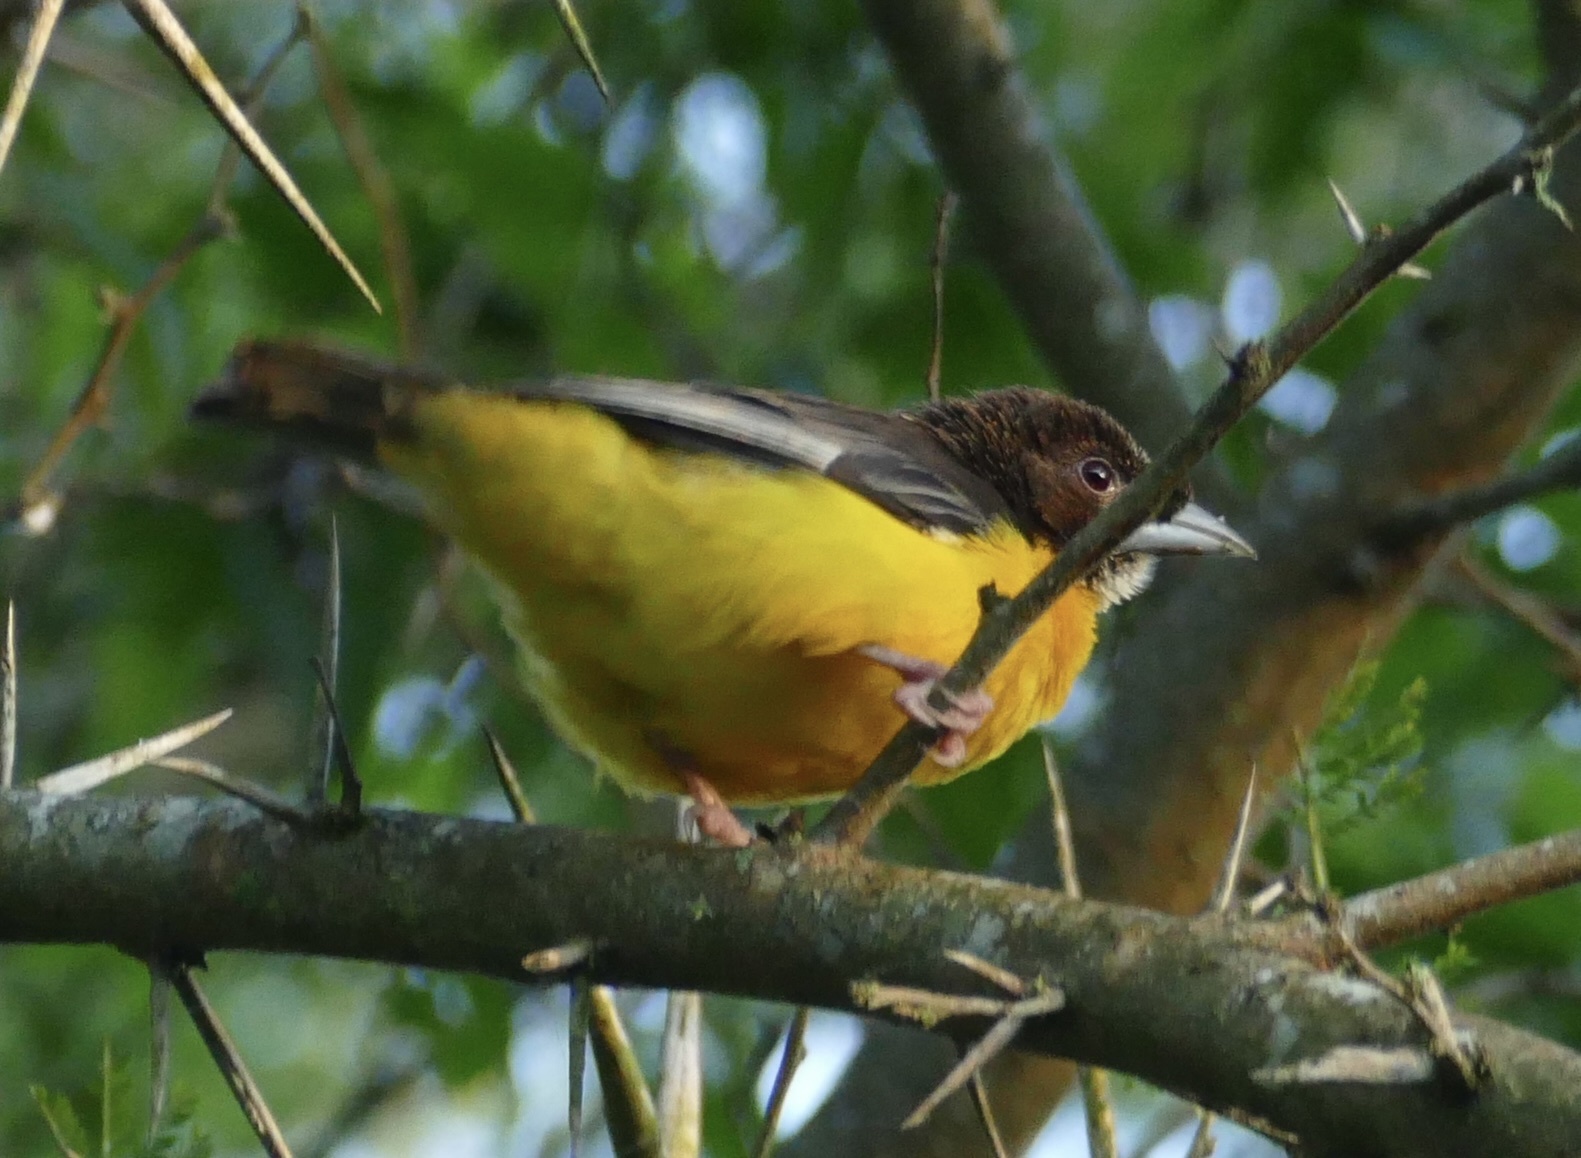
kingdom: Animalia
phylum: Chordata
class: Aves
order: Passeriformes
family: Ploceidae
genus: Ploceus
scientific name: Ploceus bicolor
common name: Dark-backed weaver
